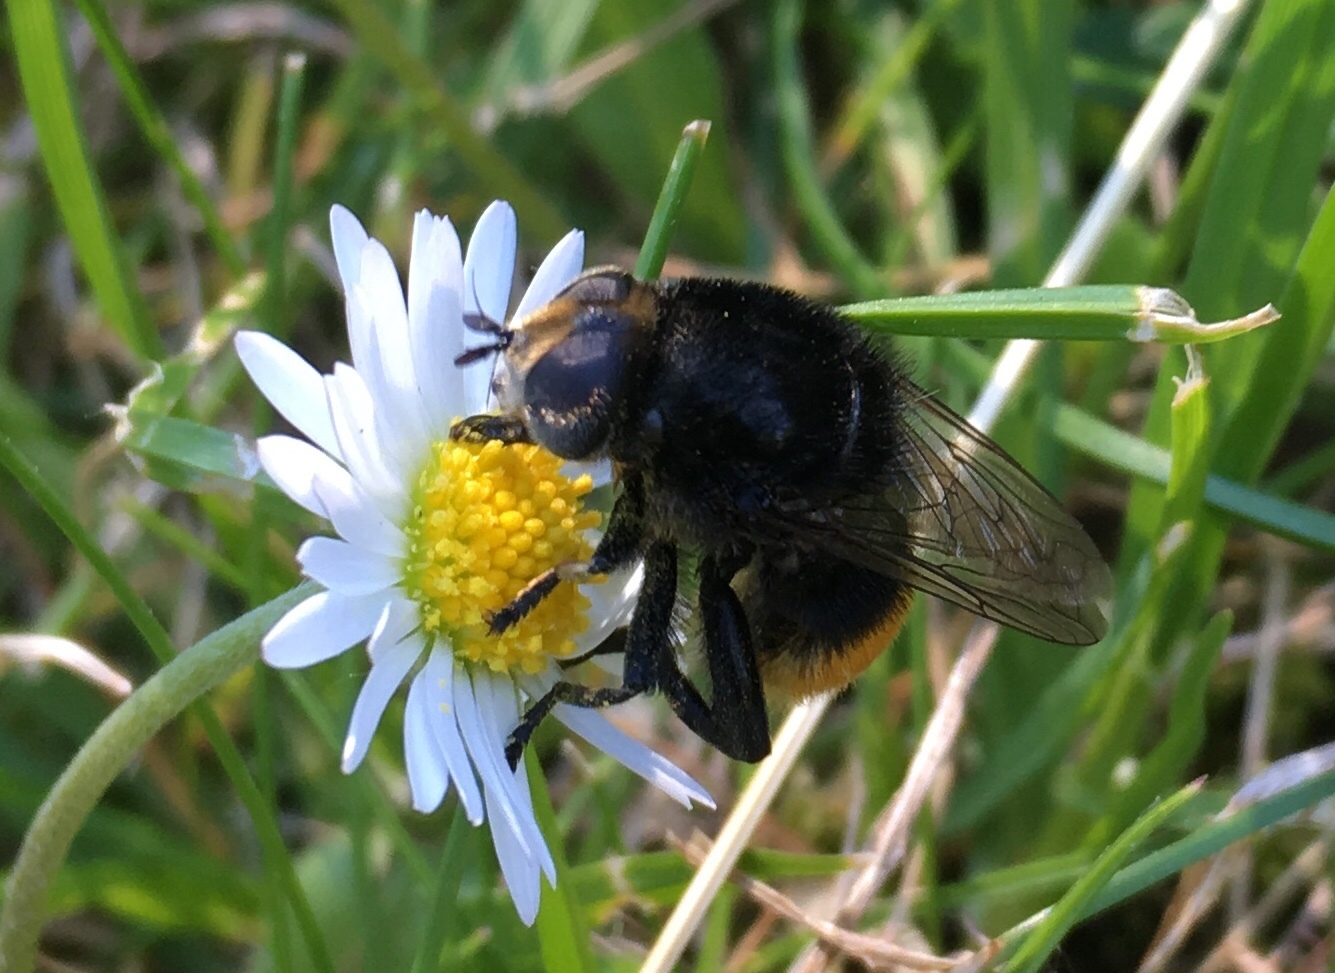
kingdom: Animalia
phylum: Arthropoda
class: Insecta
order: Diptera
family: Syrphidae
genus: Merodon
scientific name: Merodon equestris
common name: Greater bulb-fly
